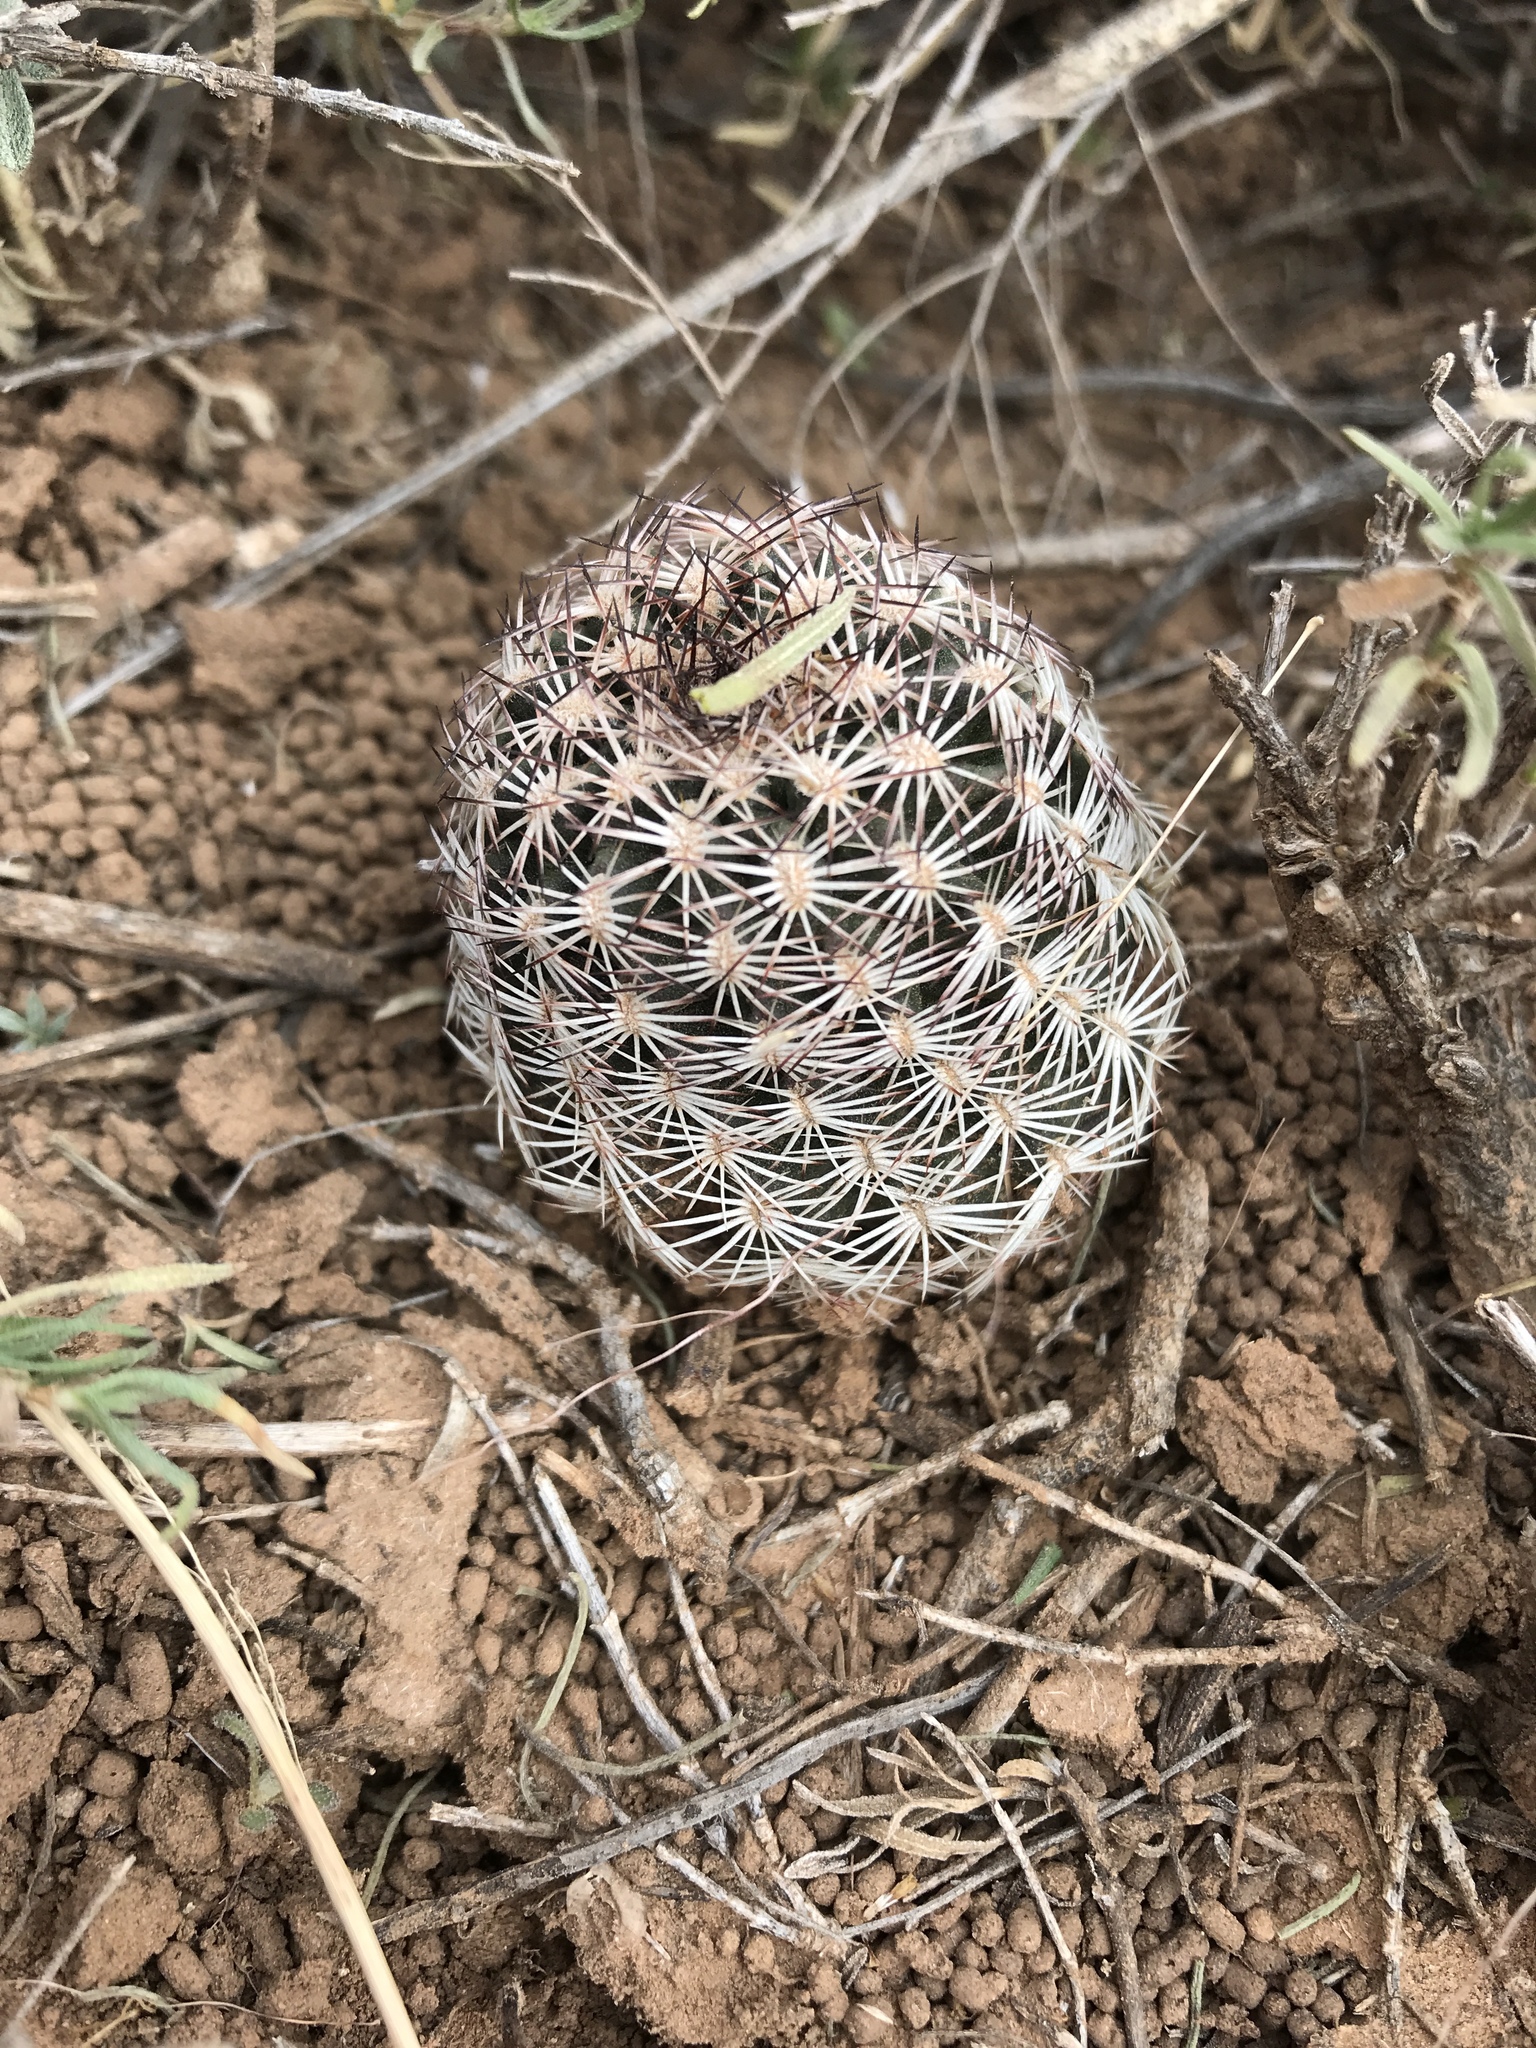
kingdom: Plantae
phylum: Tracheophyta
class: Magnoliopsida
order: Caryophyllales
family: Cactaceae
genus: Echinocereus
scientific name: Echinocereus reichenbachii
